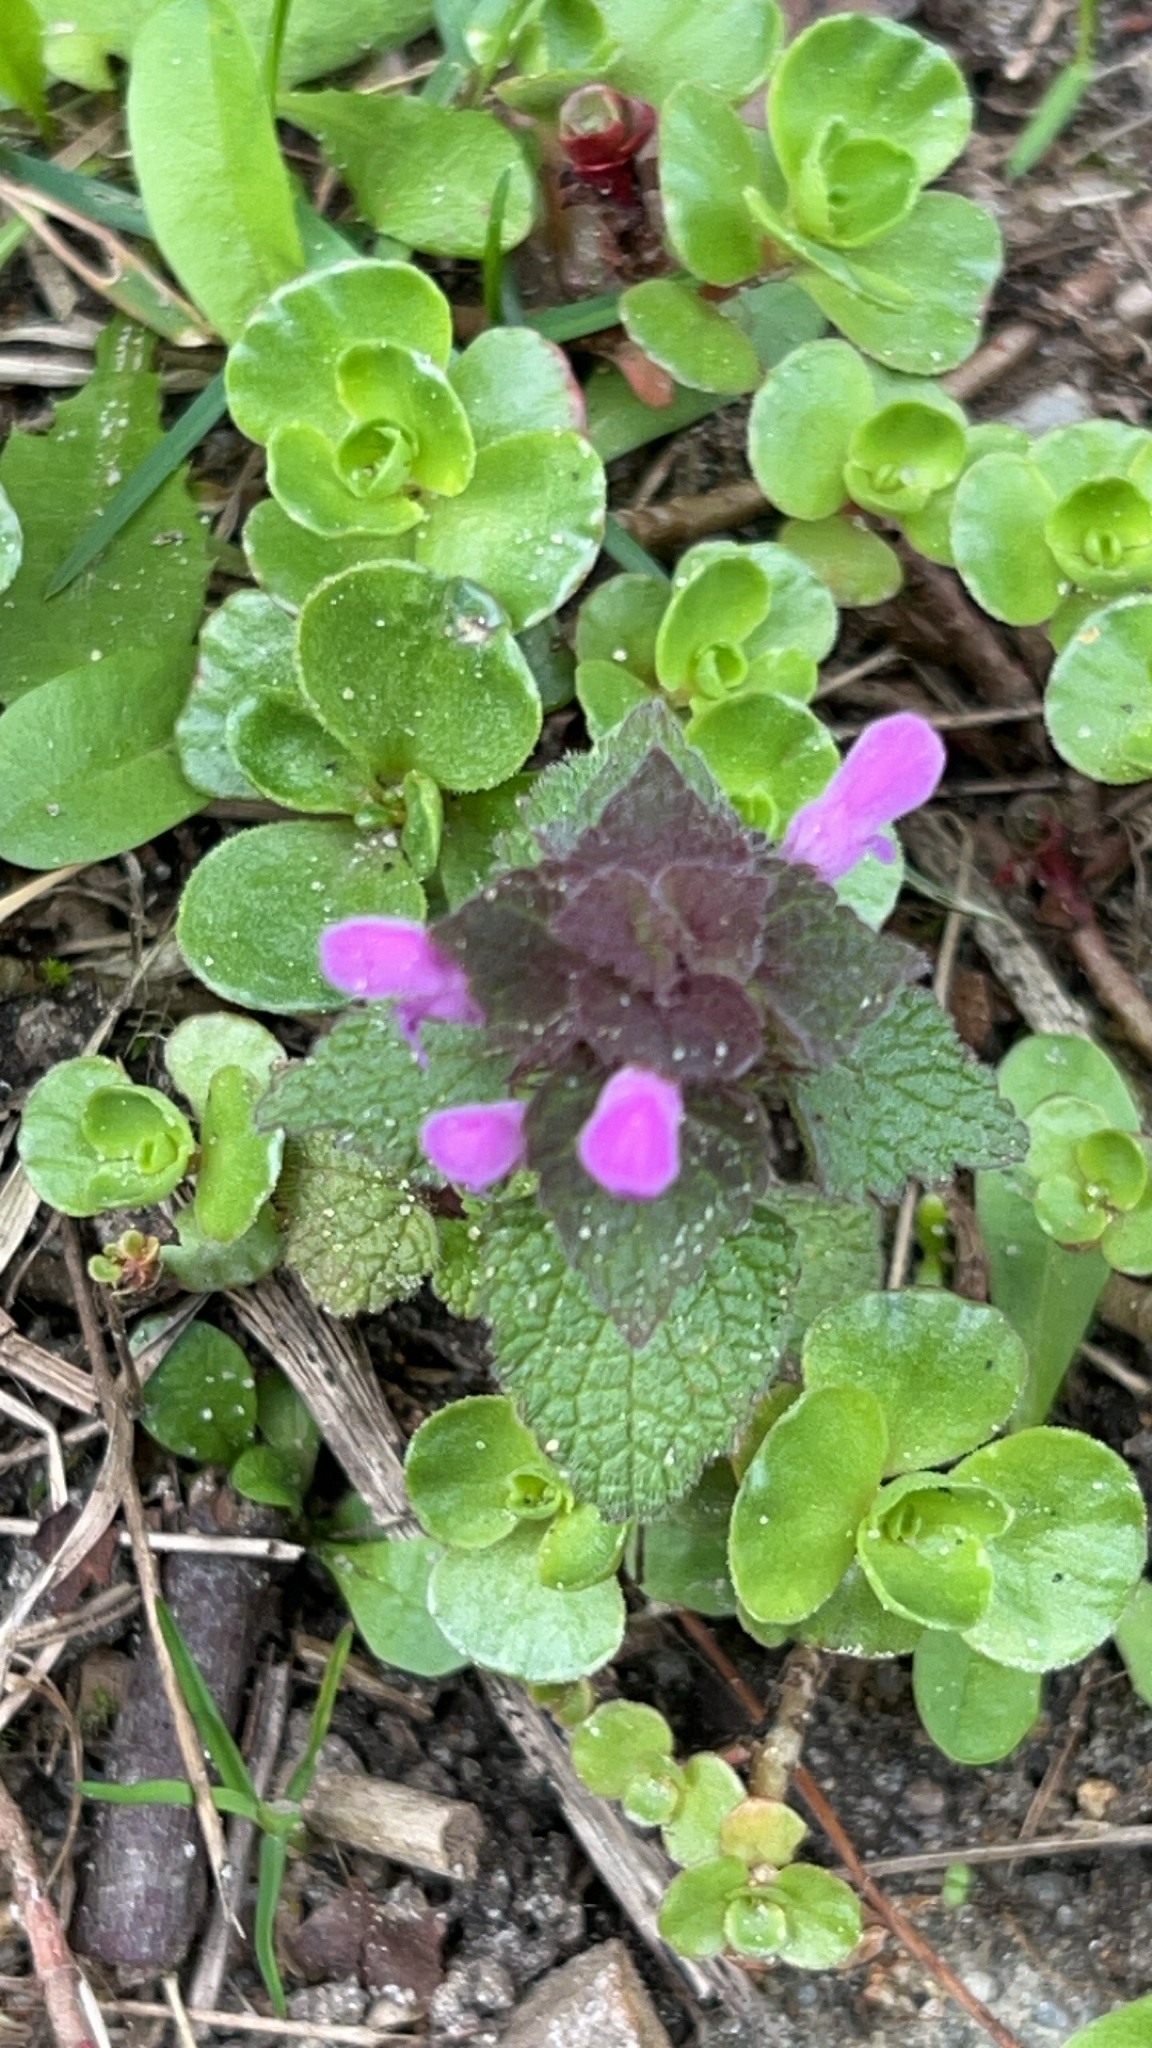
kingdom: Plantae
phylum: Tracheophyta
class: Magnoliopsida
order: Lamiales
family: Lamiaceae
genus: Lamium
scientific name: Lamium purpureum
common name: Red dead-nettle
